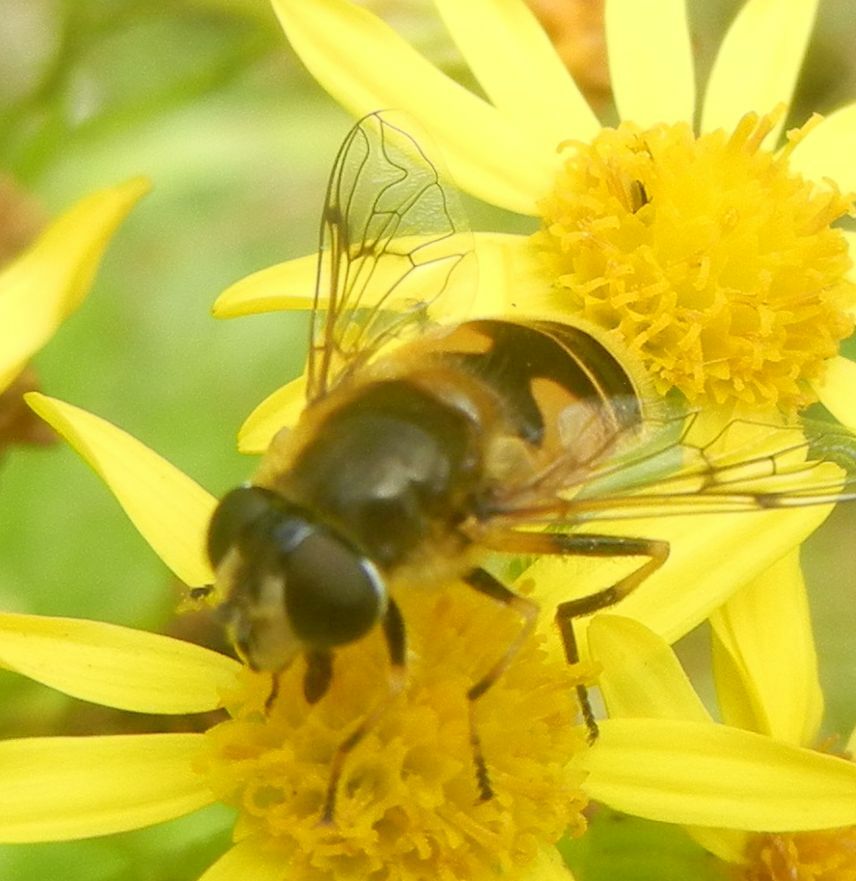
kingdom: Animalia
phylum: Arthropoda
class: Insecta
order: Diptera
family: Syrphidae
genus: Cheilosia
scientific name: Cheilosia morio
